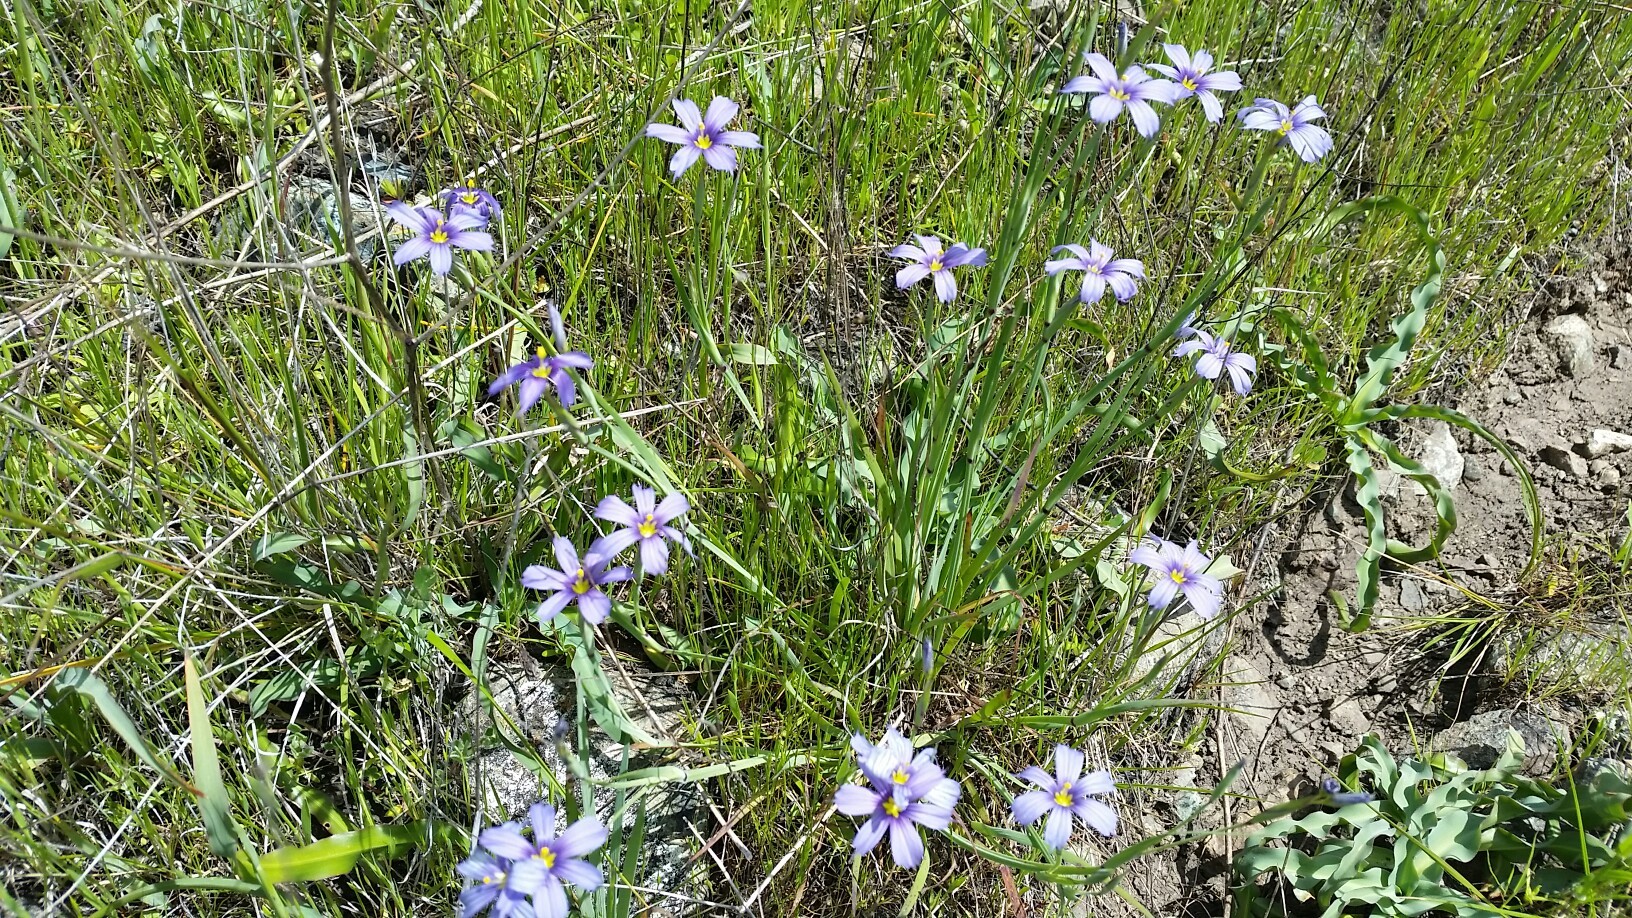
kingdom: Plantae
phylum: Tracheophyta
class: Liliopsida
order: Asparagales
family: Iridaceae
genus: Sisyrinchium
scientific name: Sisyrinchium bellum
